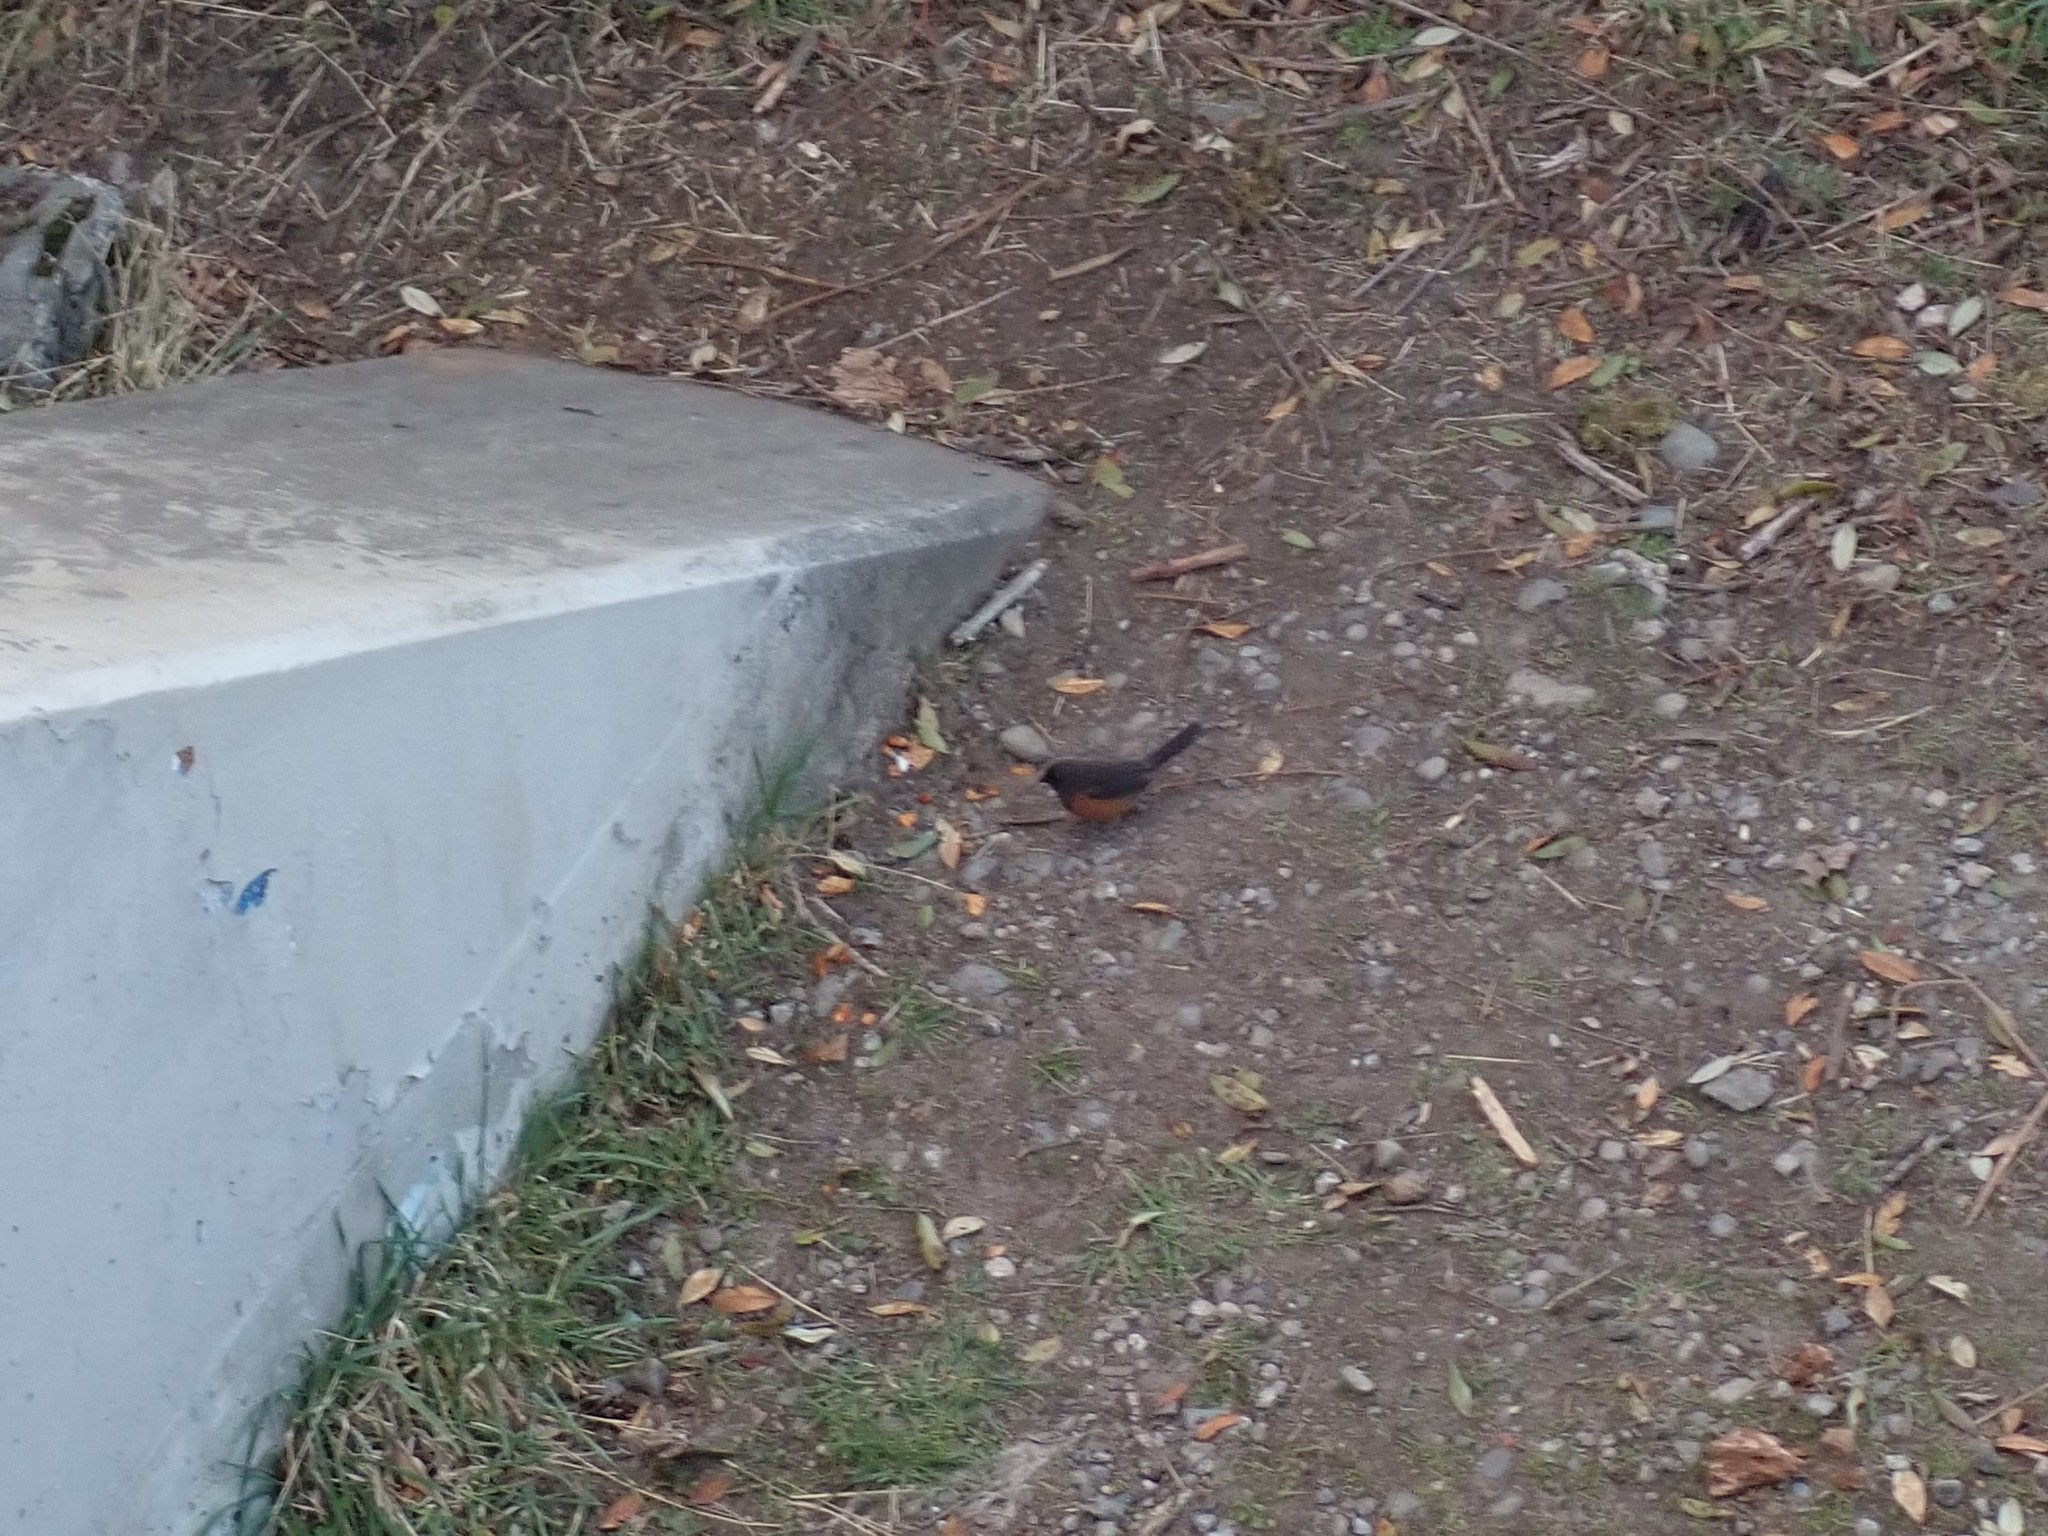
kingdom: Animalia
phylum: Chordata
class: Aves
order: Passeriformes
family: Passerellidae
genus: Pipilo
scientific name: Pipilo maculatus
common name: Spotted towhee
